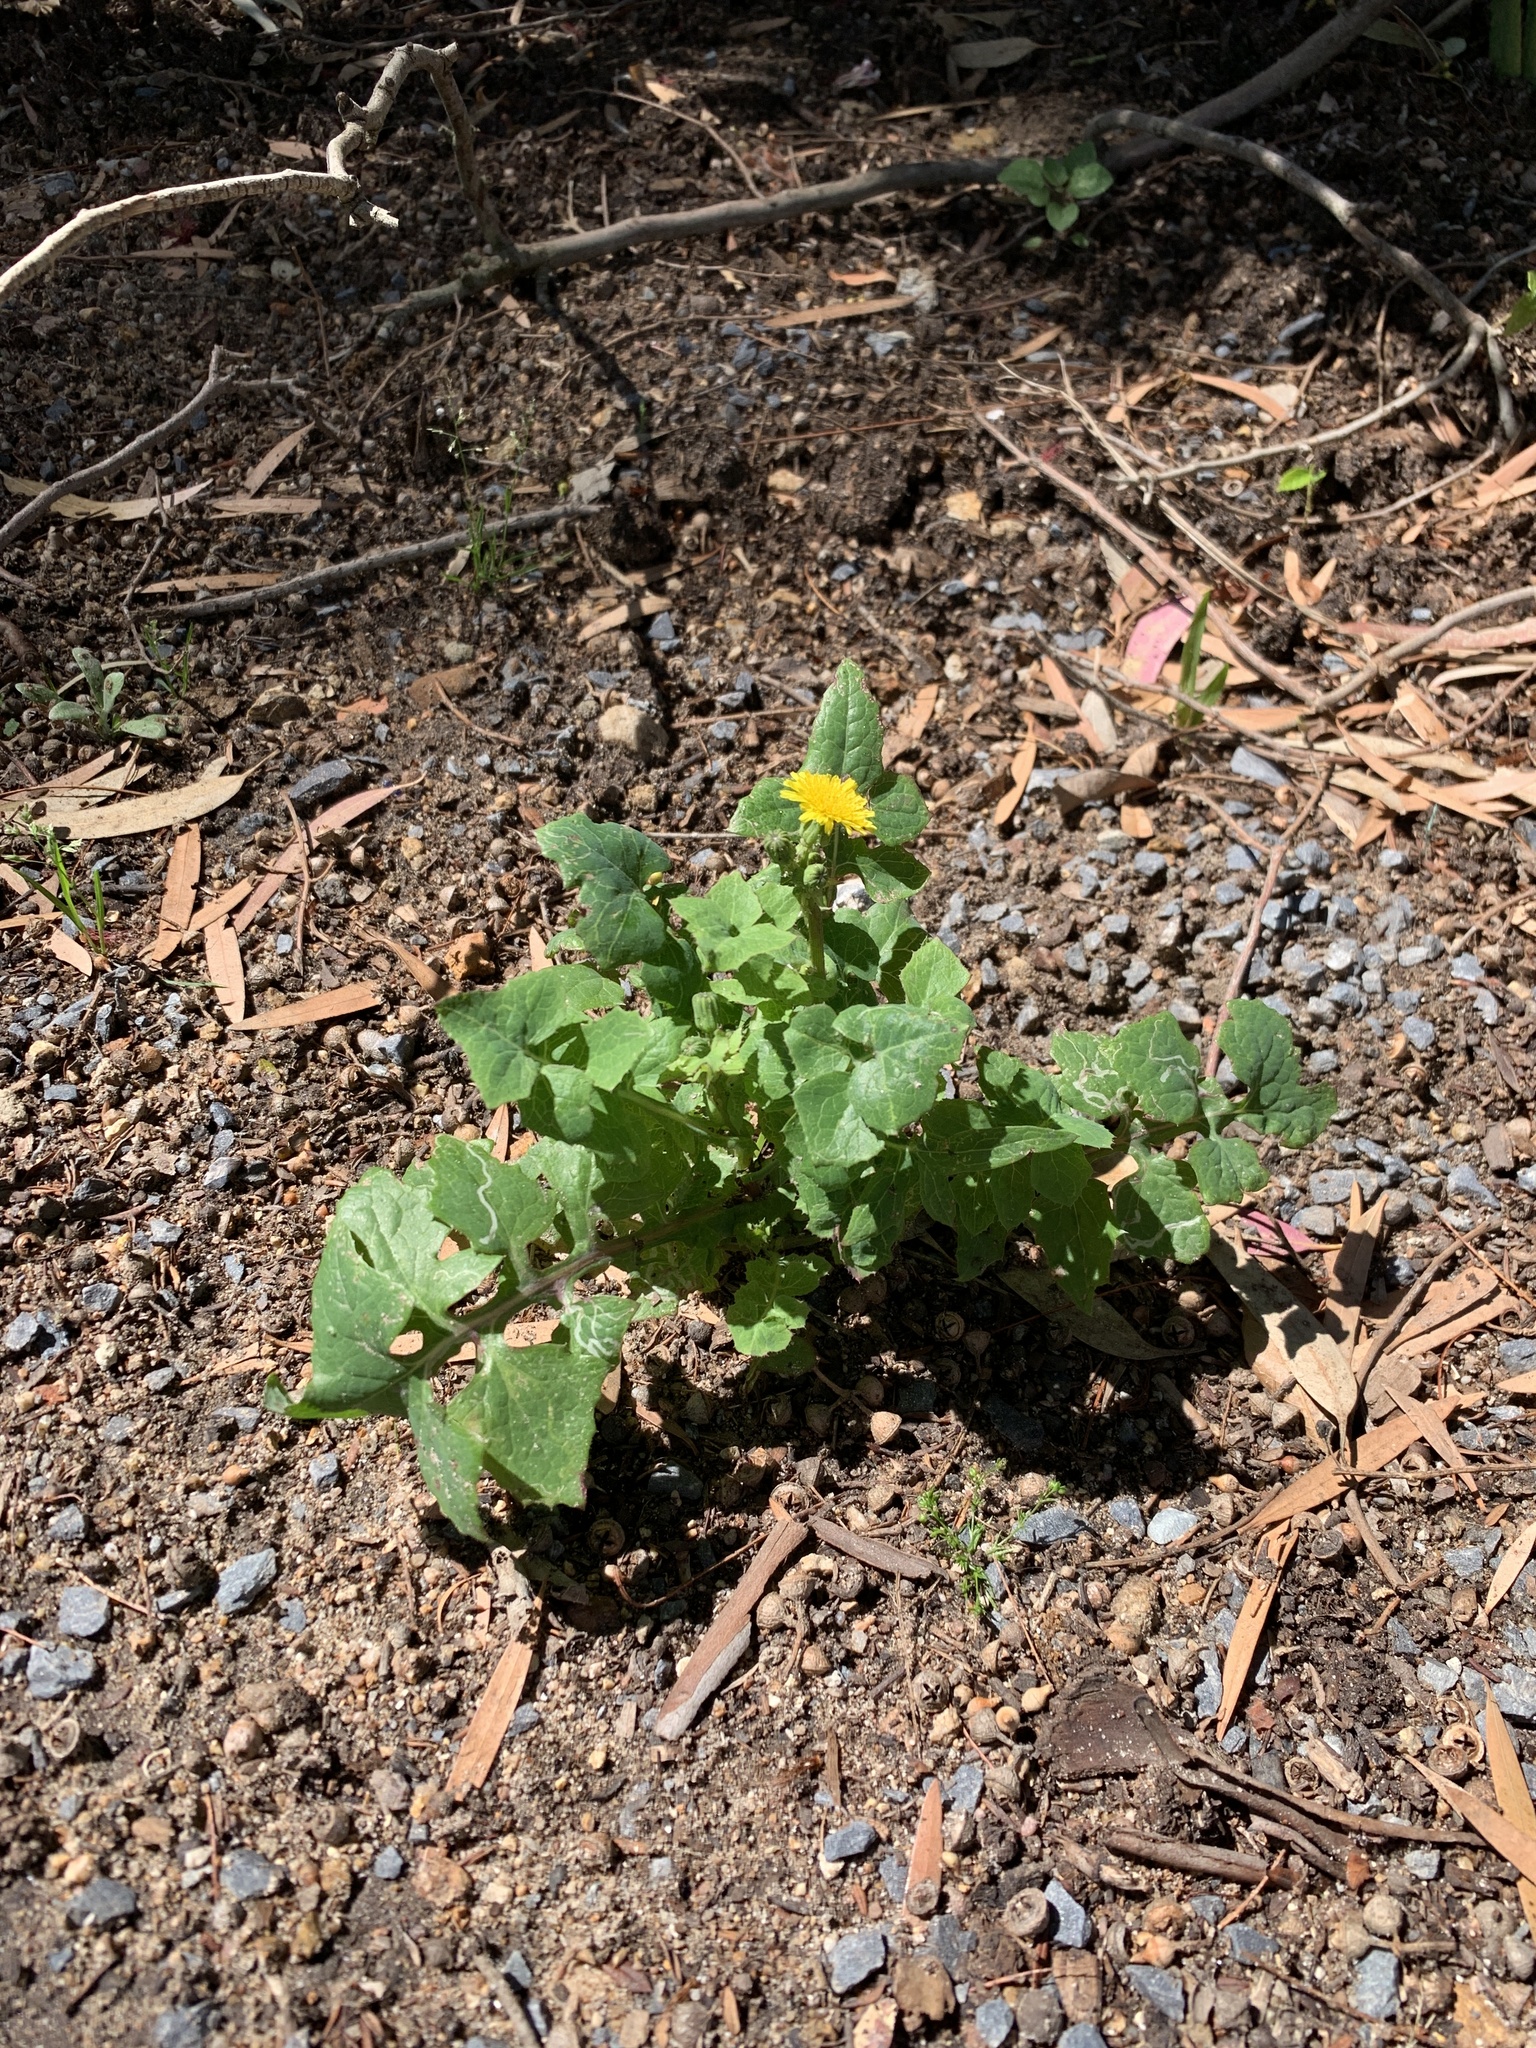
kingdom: Plantae
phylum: Tracheophyta
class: Magnoliopsida
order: Asterales
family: Asteraceae
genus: Sonchus
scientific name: Sonchus oleraceus
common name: Common sowthistle
